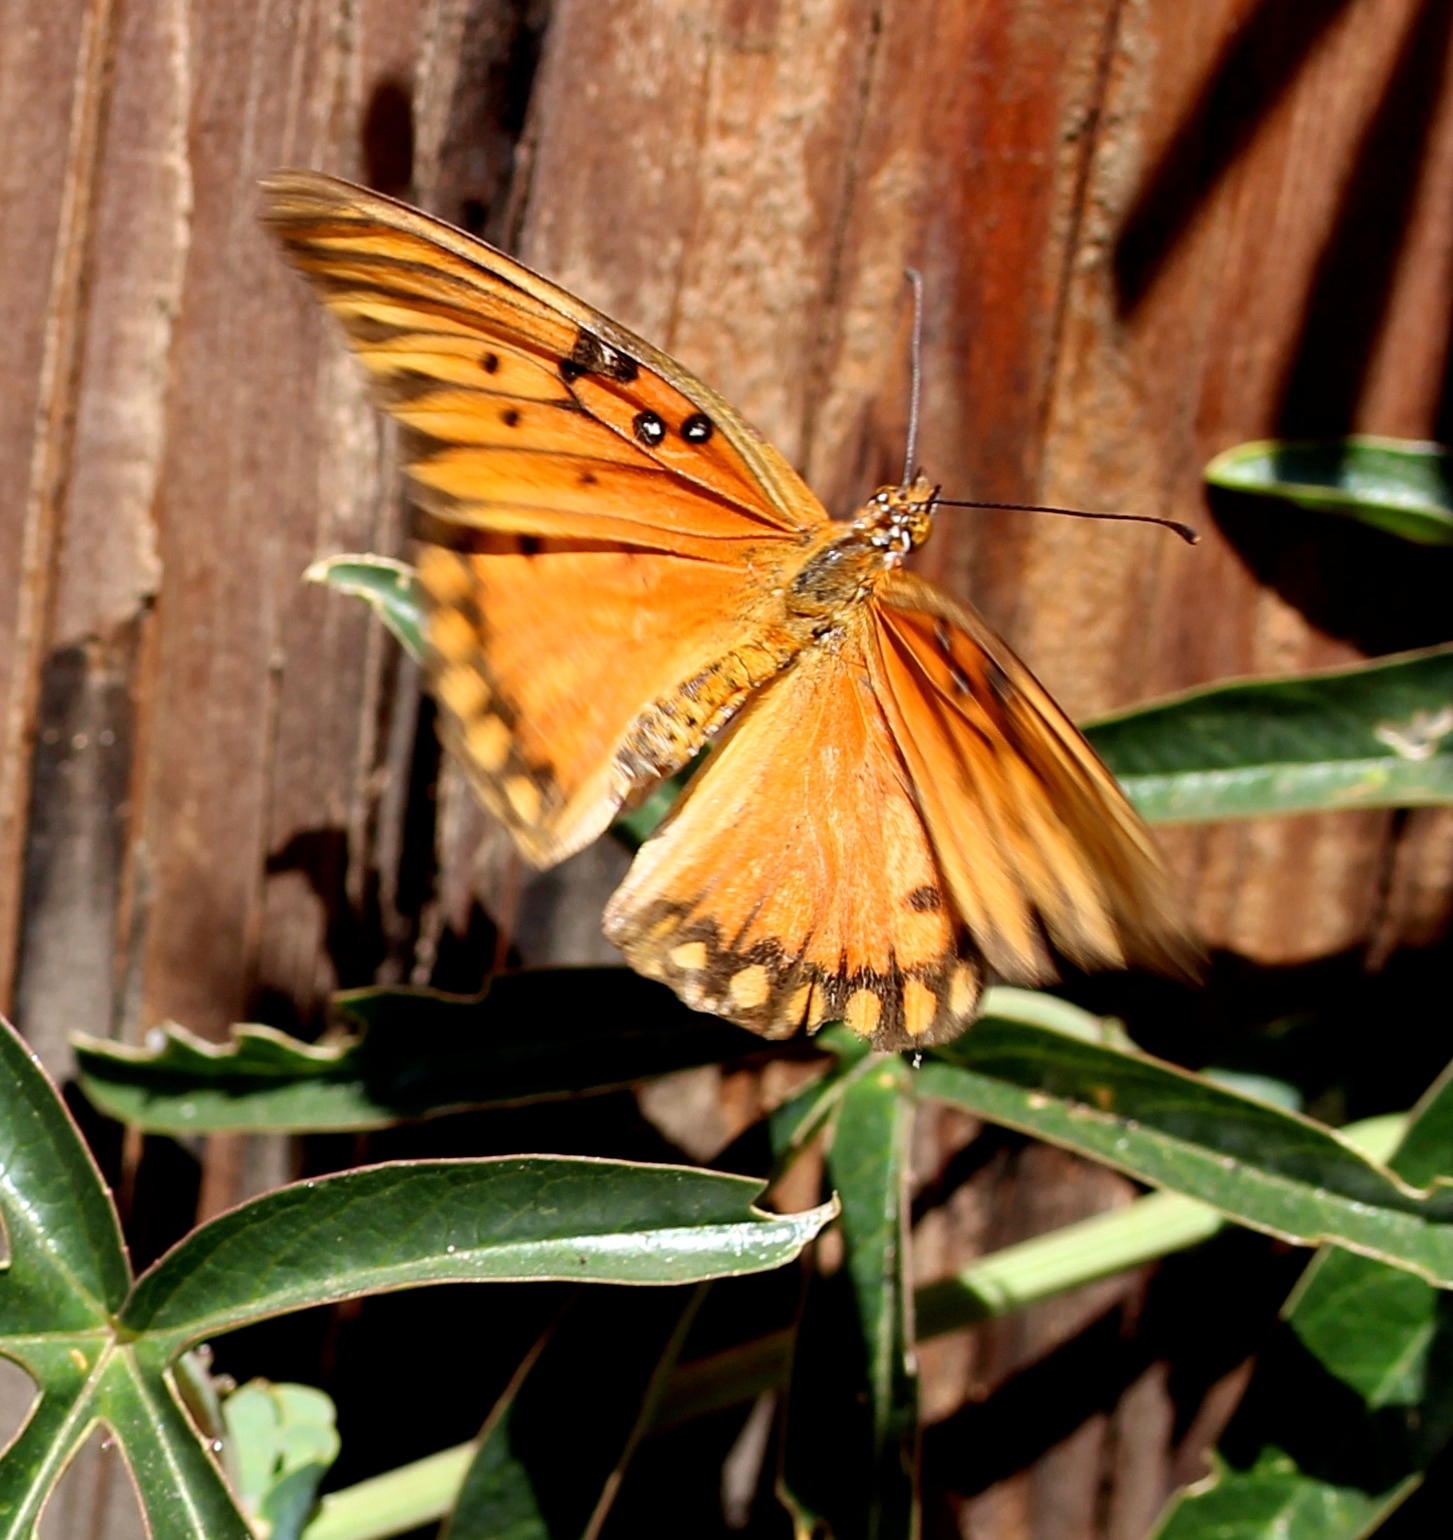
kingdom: Animalia
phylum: Arthropoda
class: Insecta
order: Lepidoptera
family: Nymphalidae
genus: Dione
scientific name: Dione vanillae
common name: Gulf fritillary
